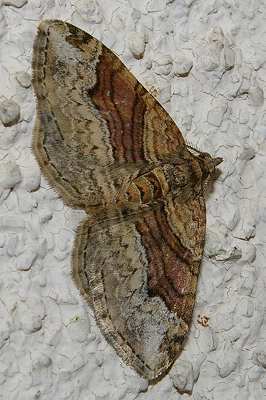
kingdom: Animalia
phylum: Arthropoda
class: Insecta
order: Lepidoptera
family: Geometridae
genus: Xanthorhoe
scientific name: Xanthorhoe hortensiaria
